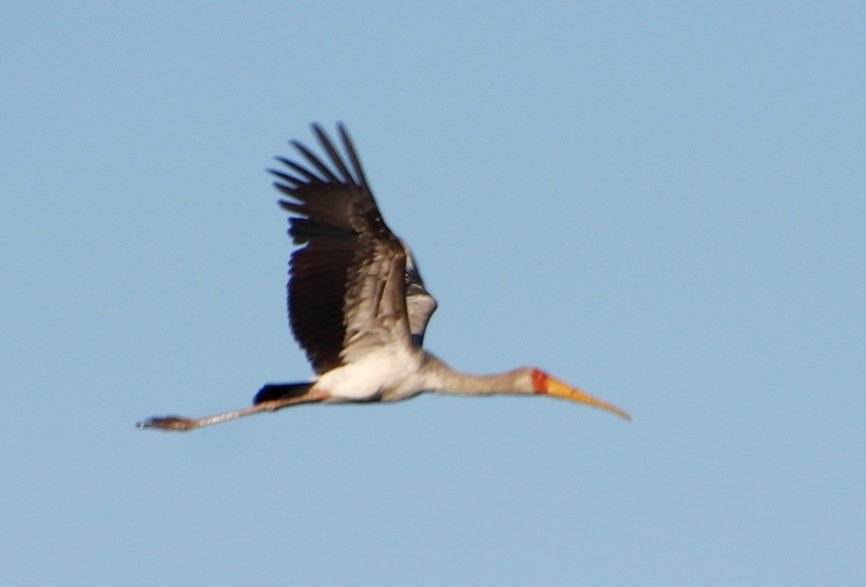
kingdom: Animalia
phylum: Chordata
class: Aves
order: Ciconiiformes
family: Ciconiidae
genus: Mycteria
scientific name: Mycteria ibis
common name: Yellow-billed stork
